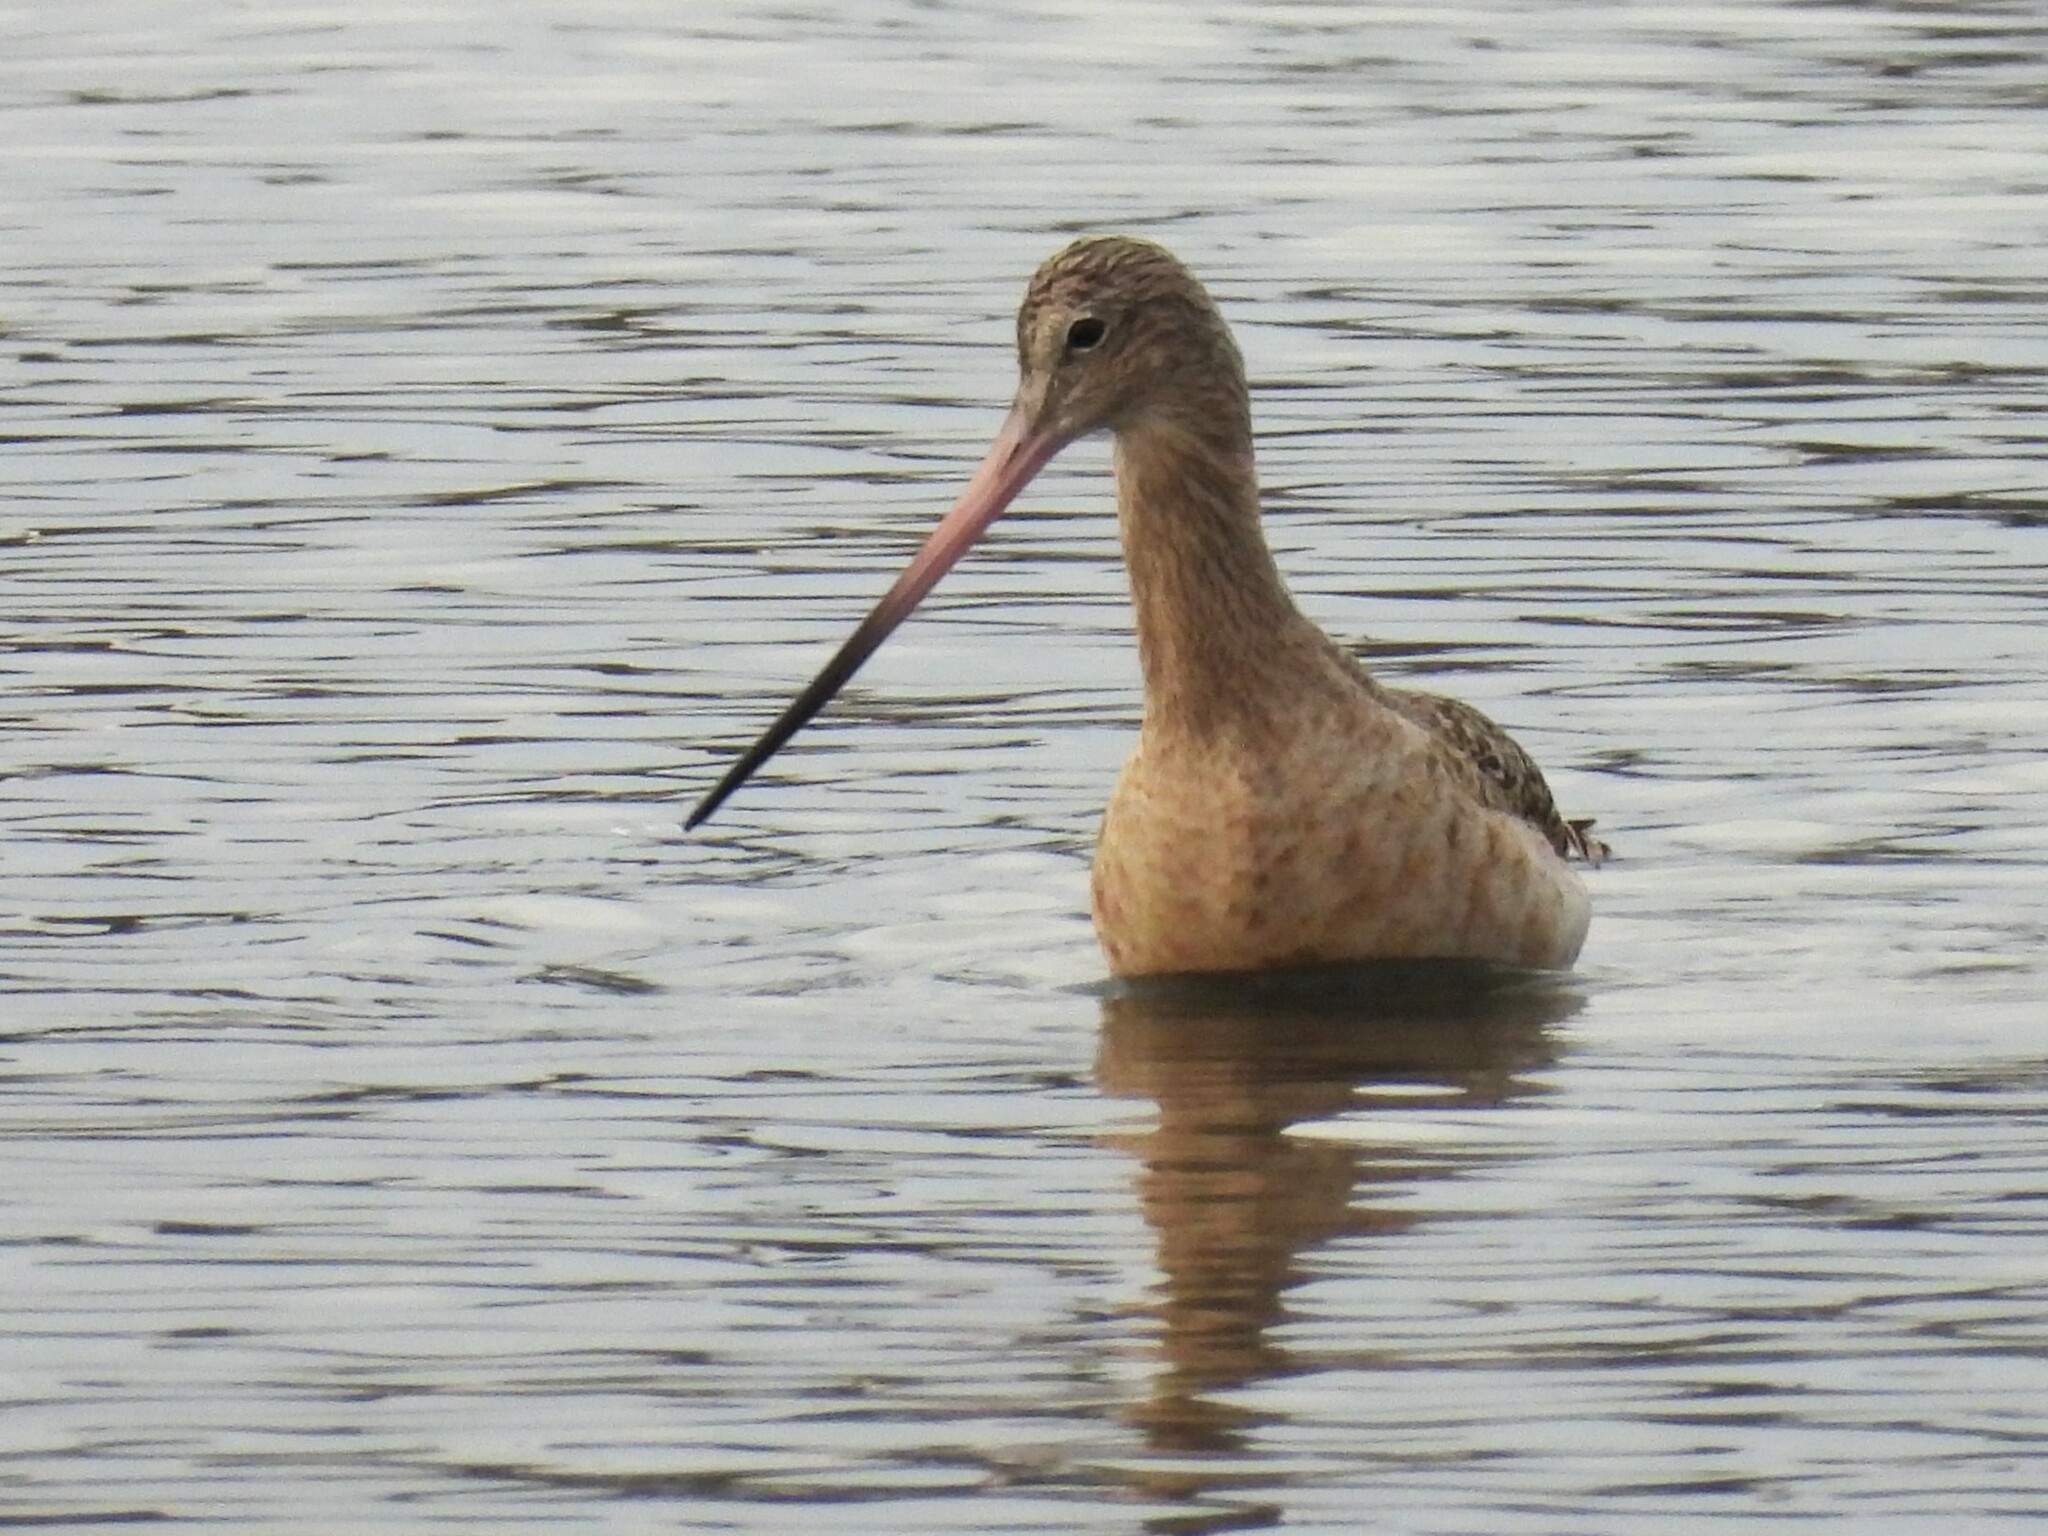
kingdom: Animalia
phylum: Chordata
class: Aves
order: Charadriiformes
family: Scolopacidae
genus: Limosa
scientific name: Limosa fedoa
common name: Marbled godwit
